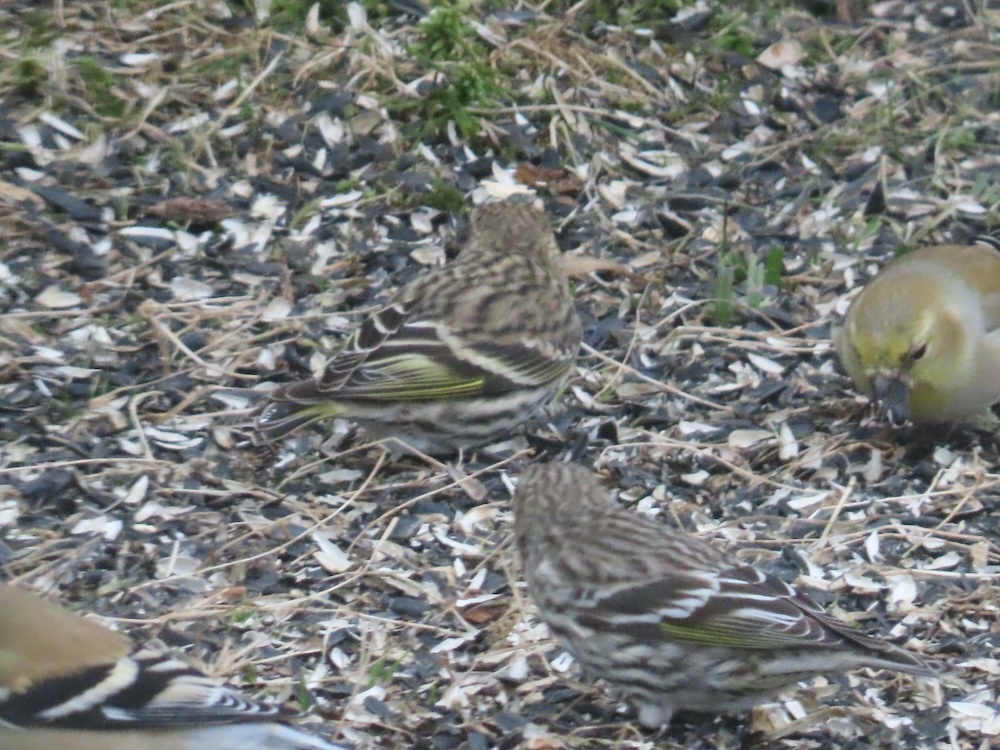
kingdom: Animalia
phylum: Chordata
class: Aves
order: Passeriformes
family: Fringillidae
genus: Spinus
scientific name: Spinus pinus
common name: Pine siskin
